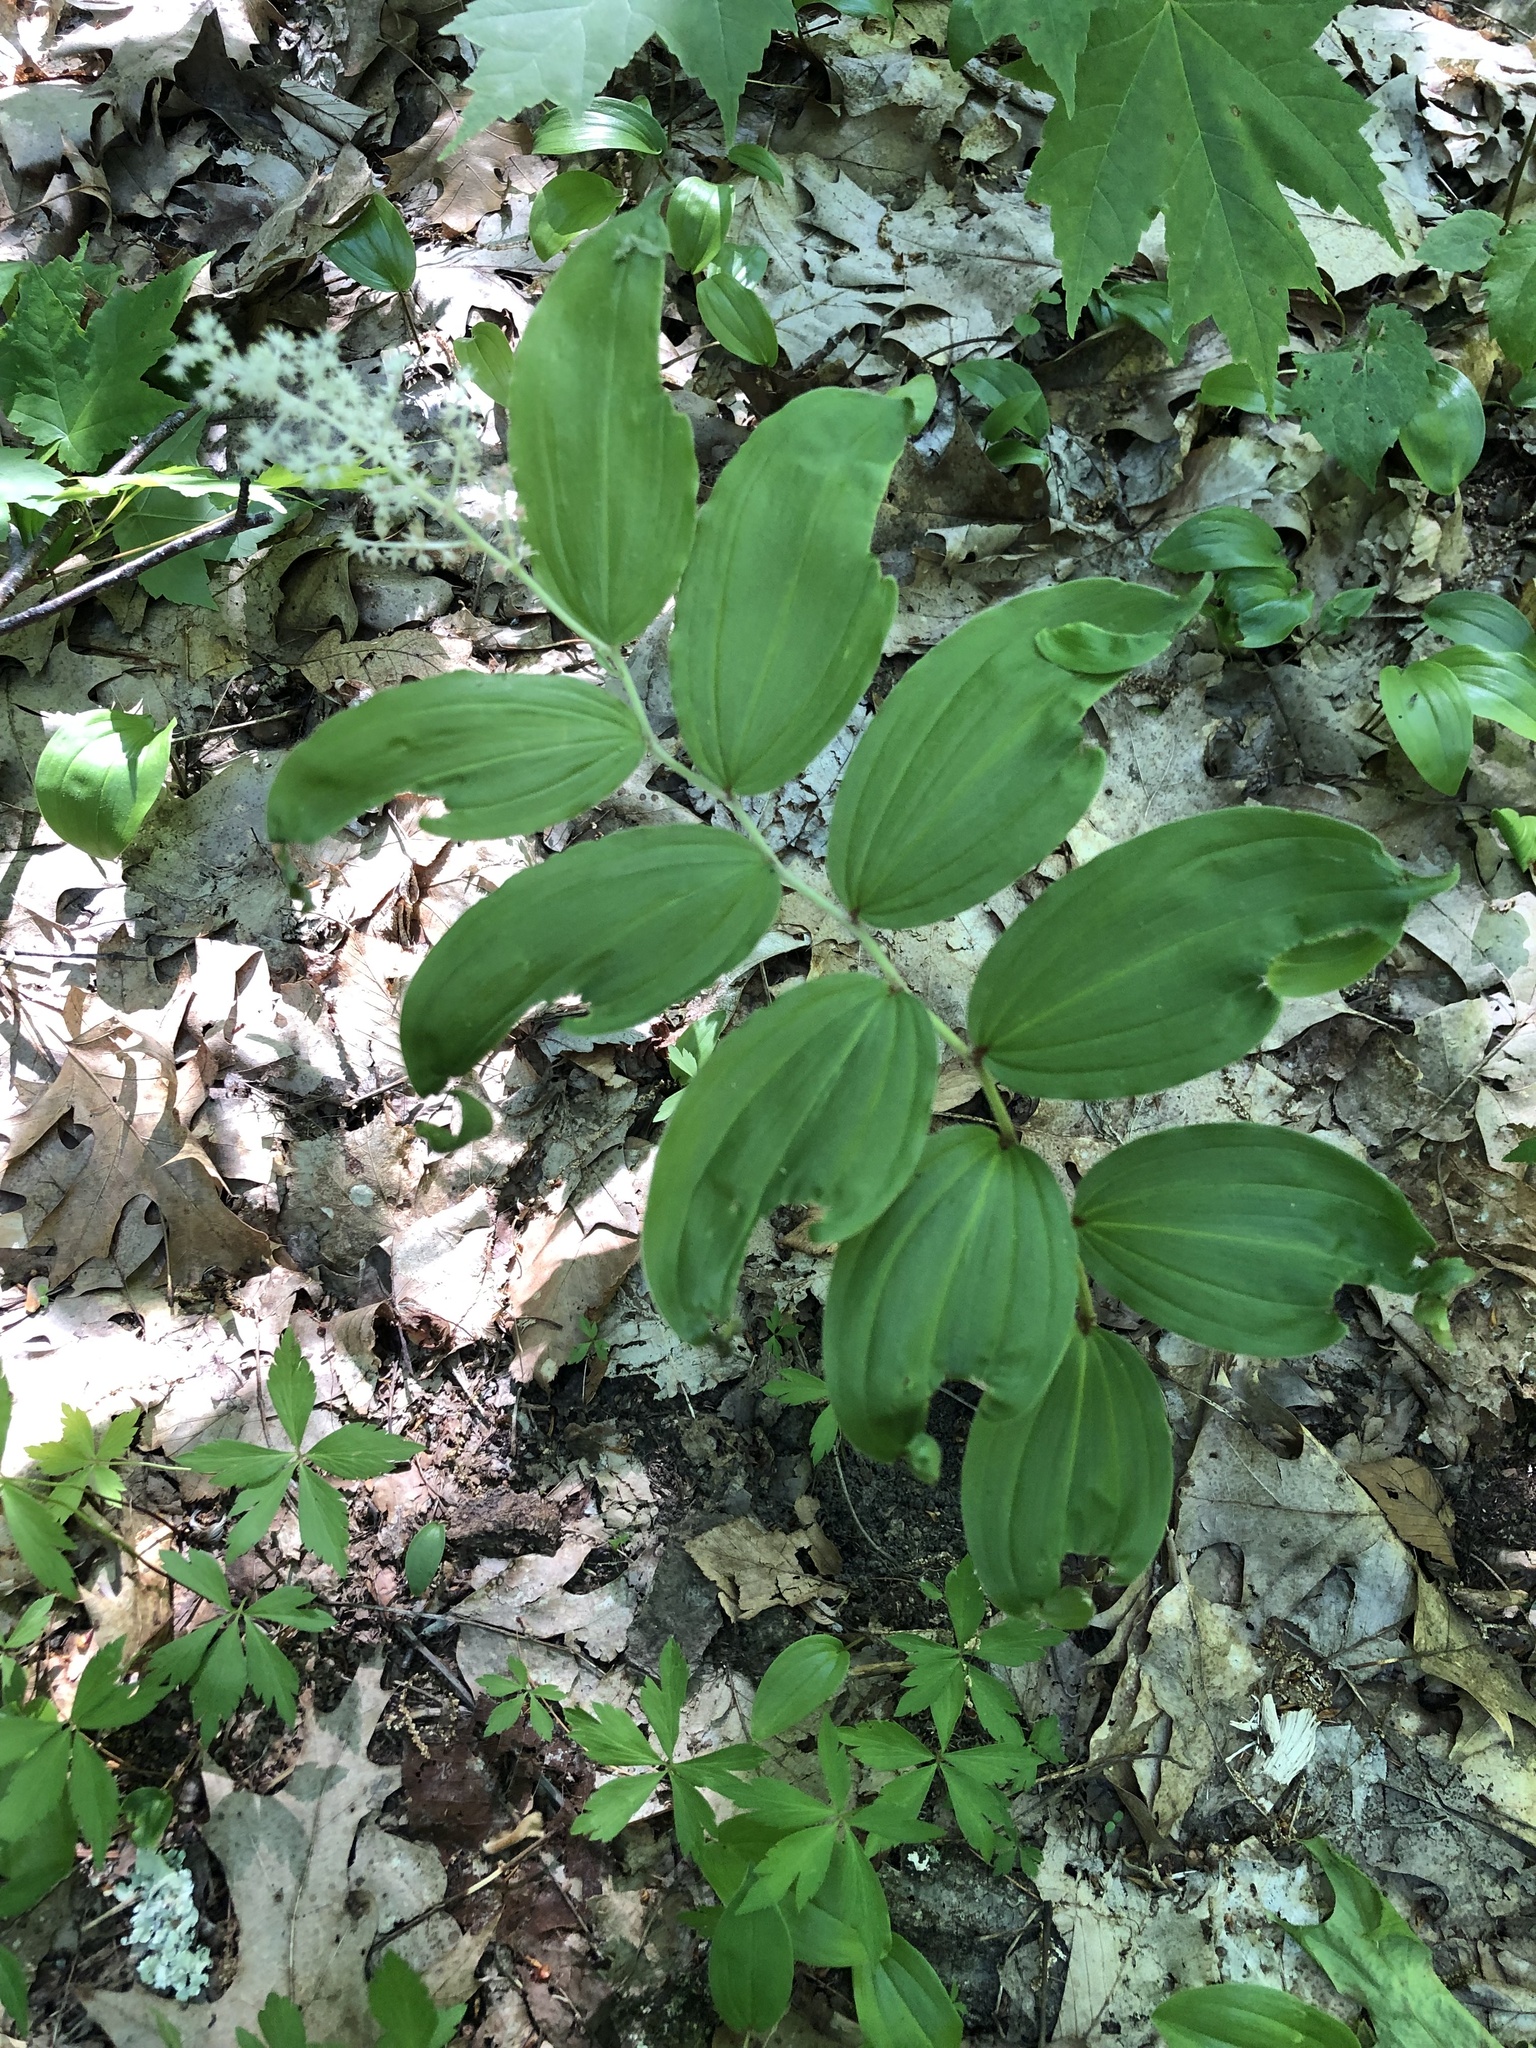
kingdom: Plantae
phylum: Tracheophyta
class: Liliopsida
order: Asparagales
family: Asparagaceae
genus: Maianthemum
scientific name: Maianthemum racemosum
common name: False spikenard
